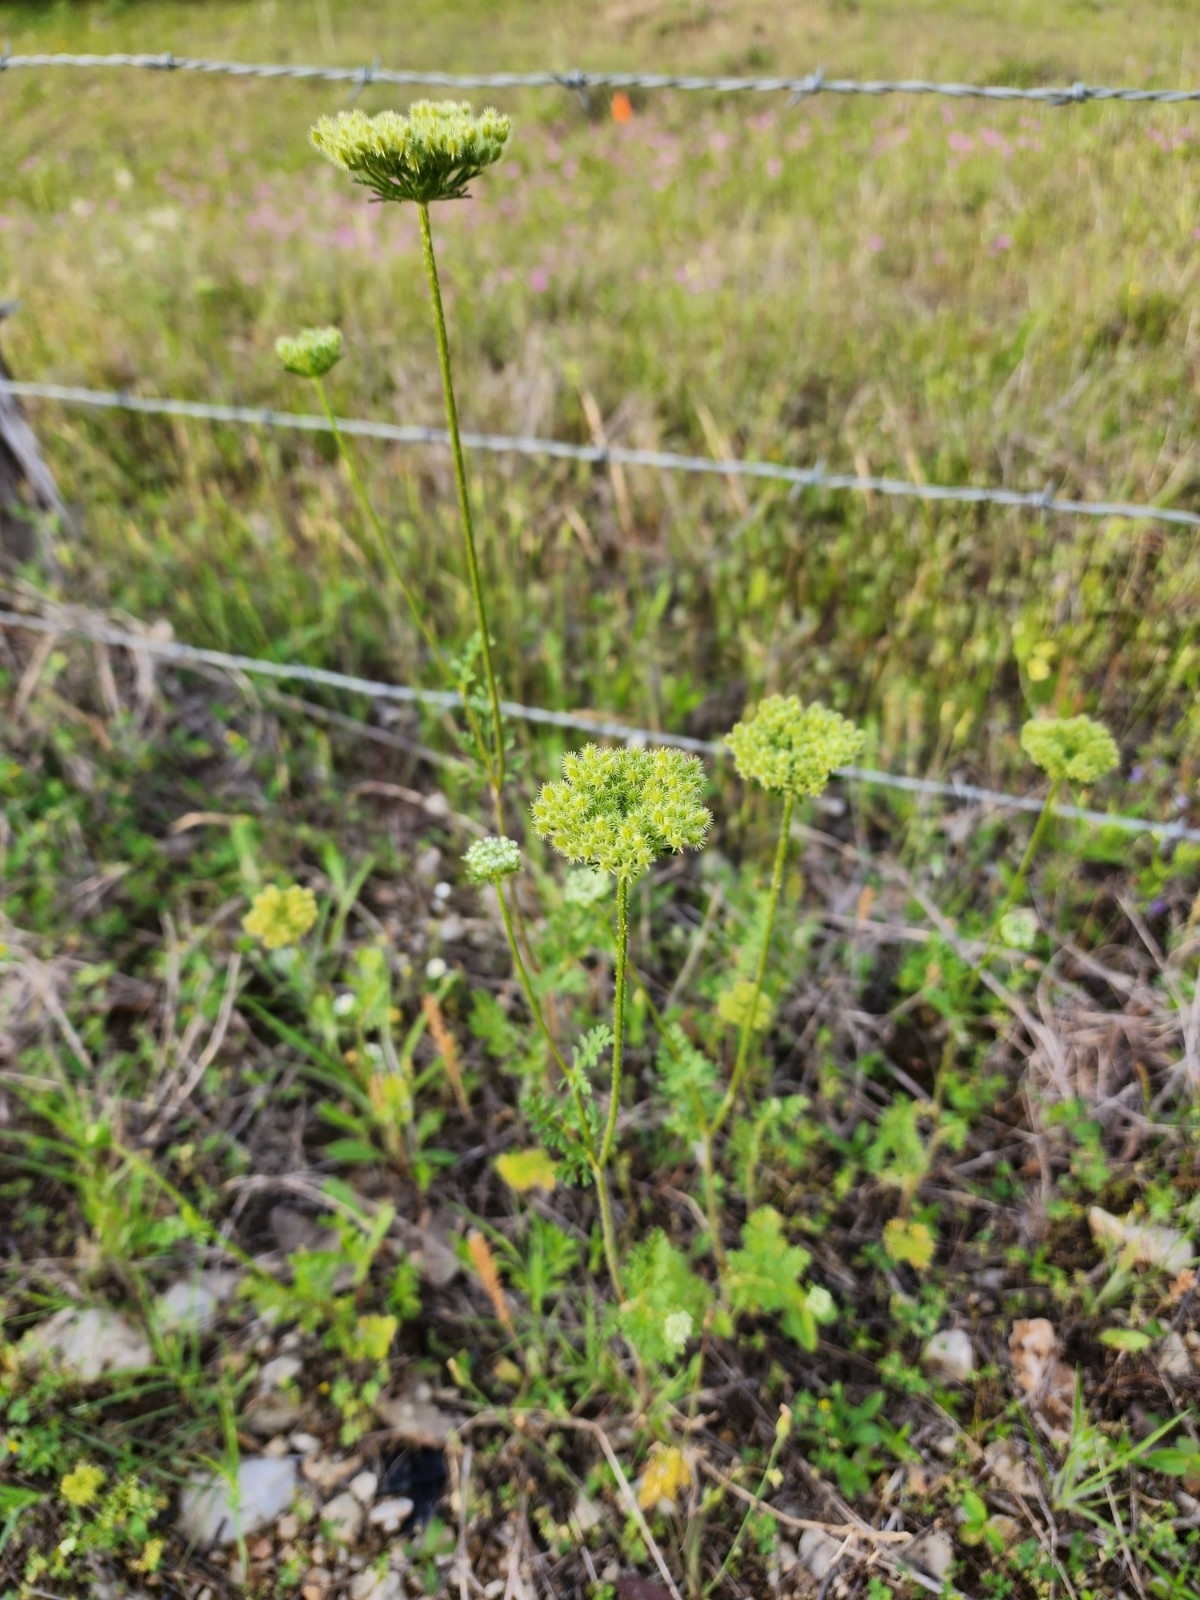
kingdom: Plantae
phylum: Tracheophyta
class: Magnoliopsida
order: Apiales
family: Apiaceae
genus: Daucus
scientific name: Daucus pusillus
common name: Southwest wild carrot
